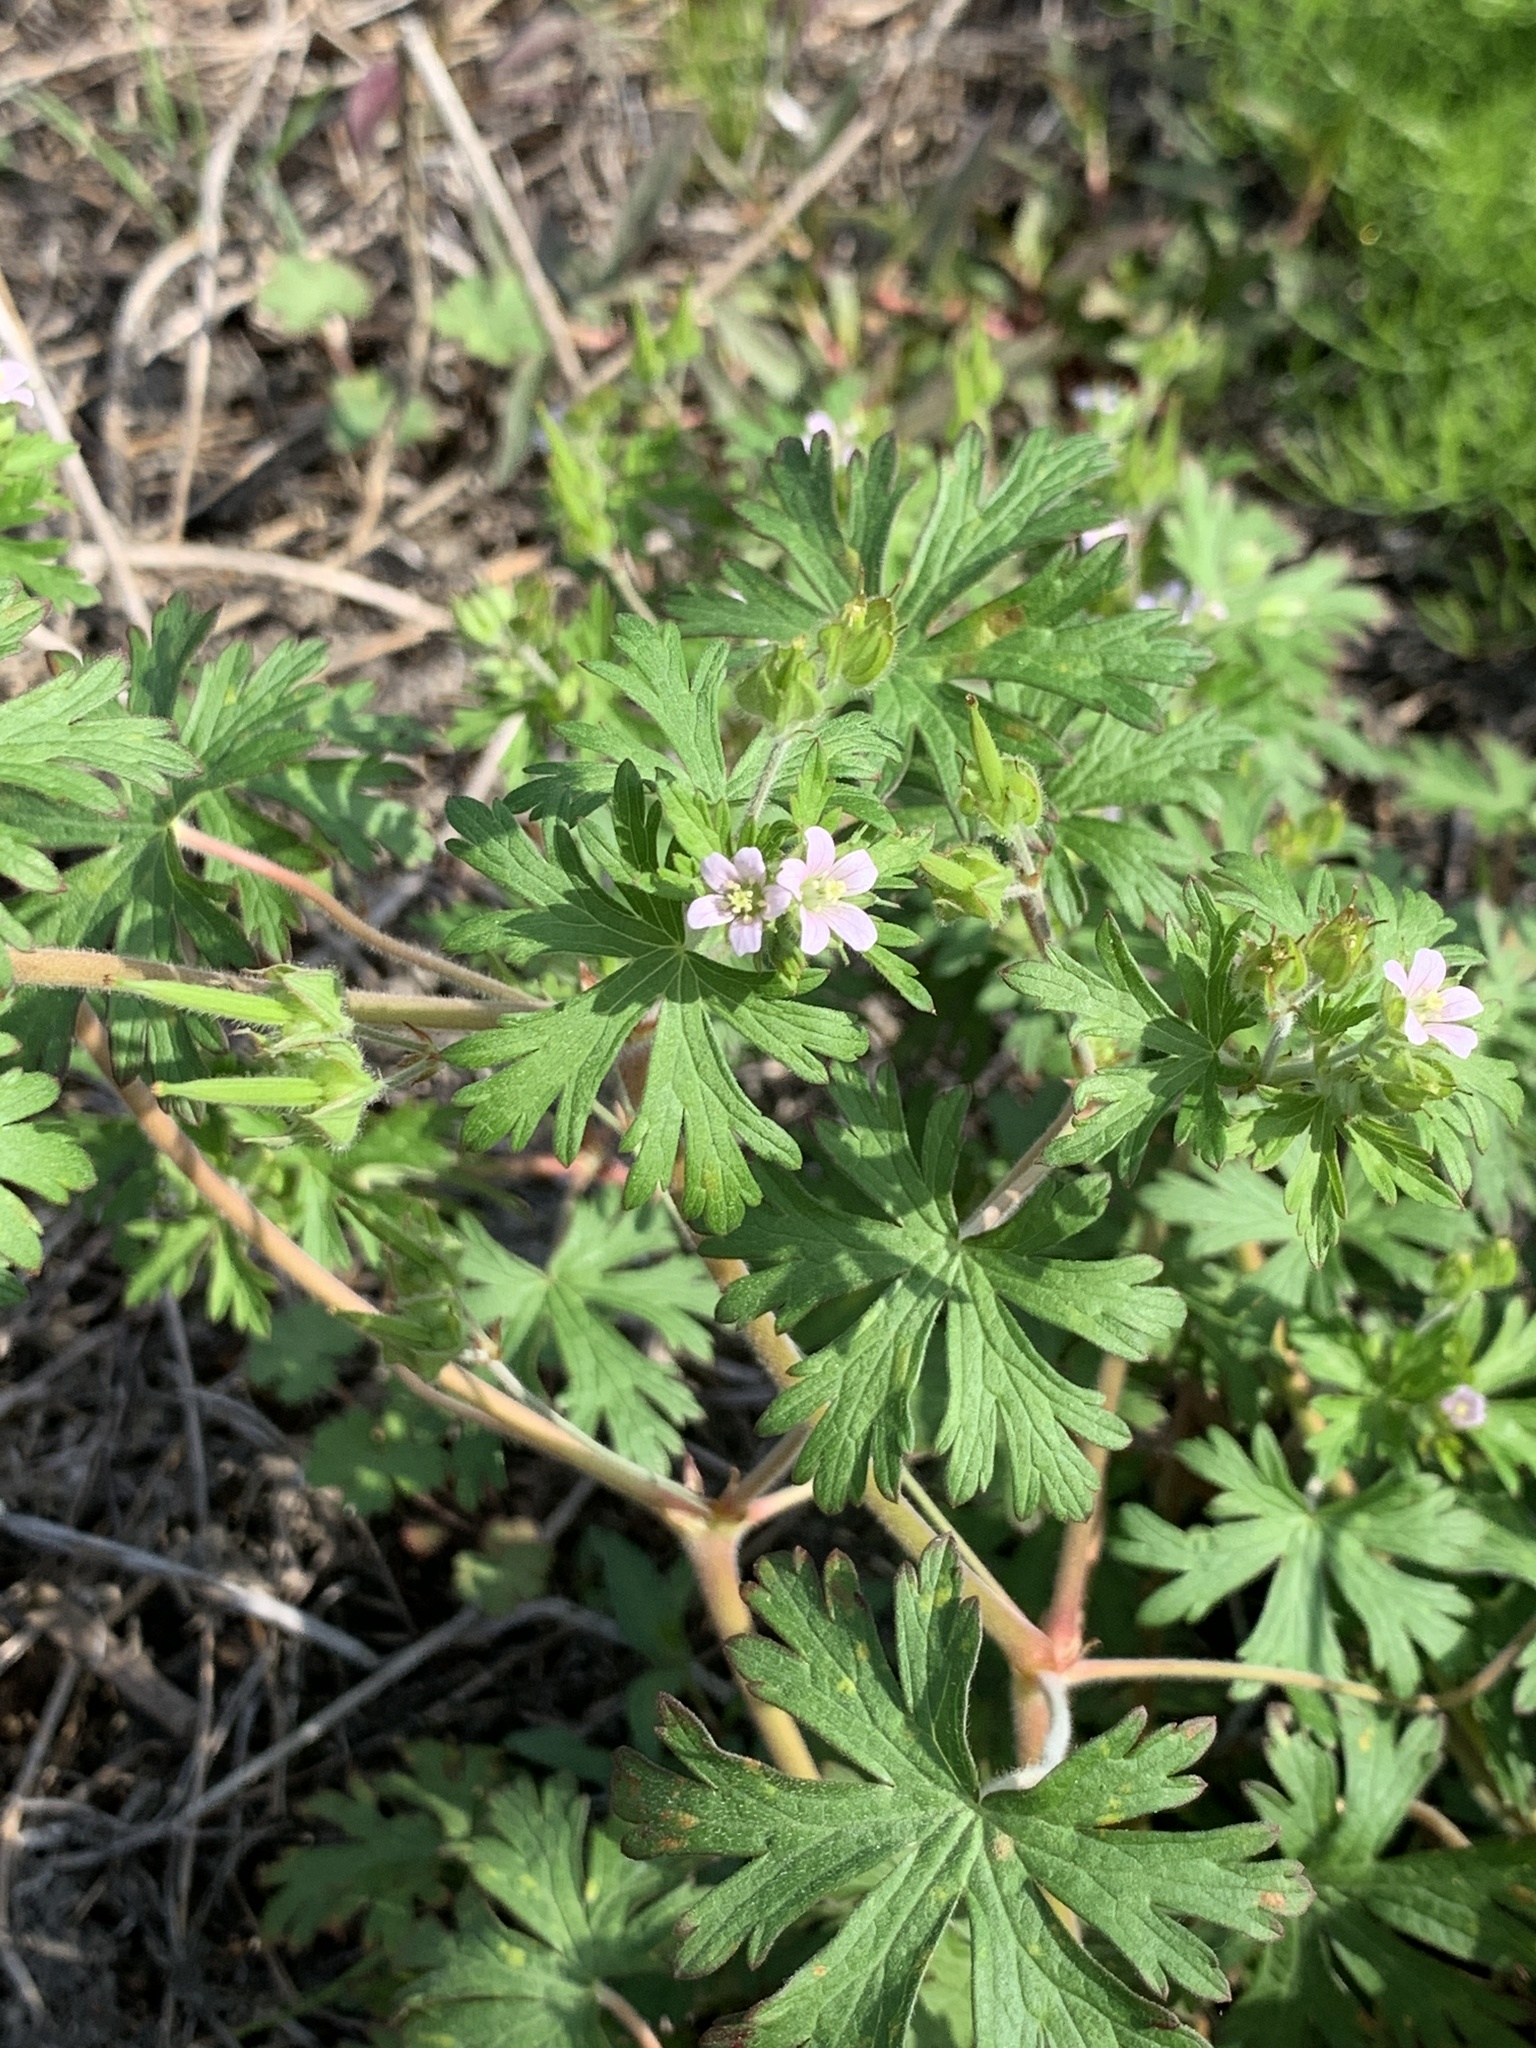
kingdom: Plantae
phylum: Tracheophyta
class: Magnoliopsida
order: Geraniales
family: Geraniaceae
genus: Geranium
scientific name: Geranium carolinianum
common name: Carolina crane's-bill
